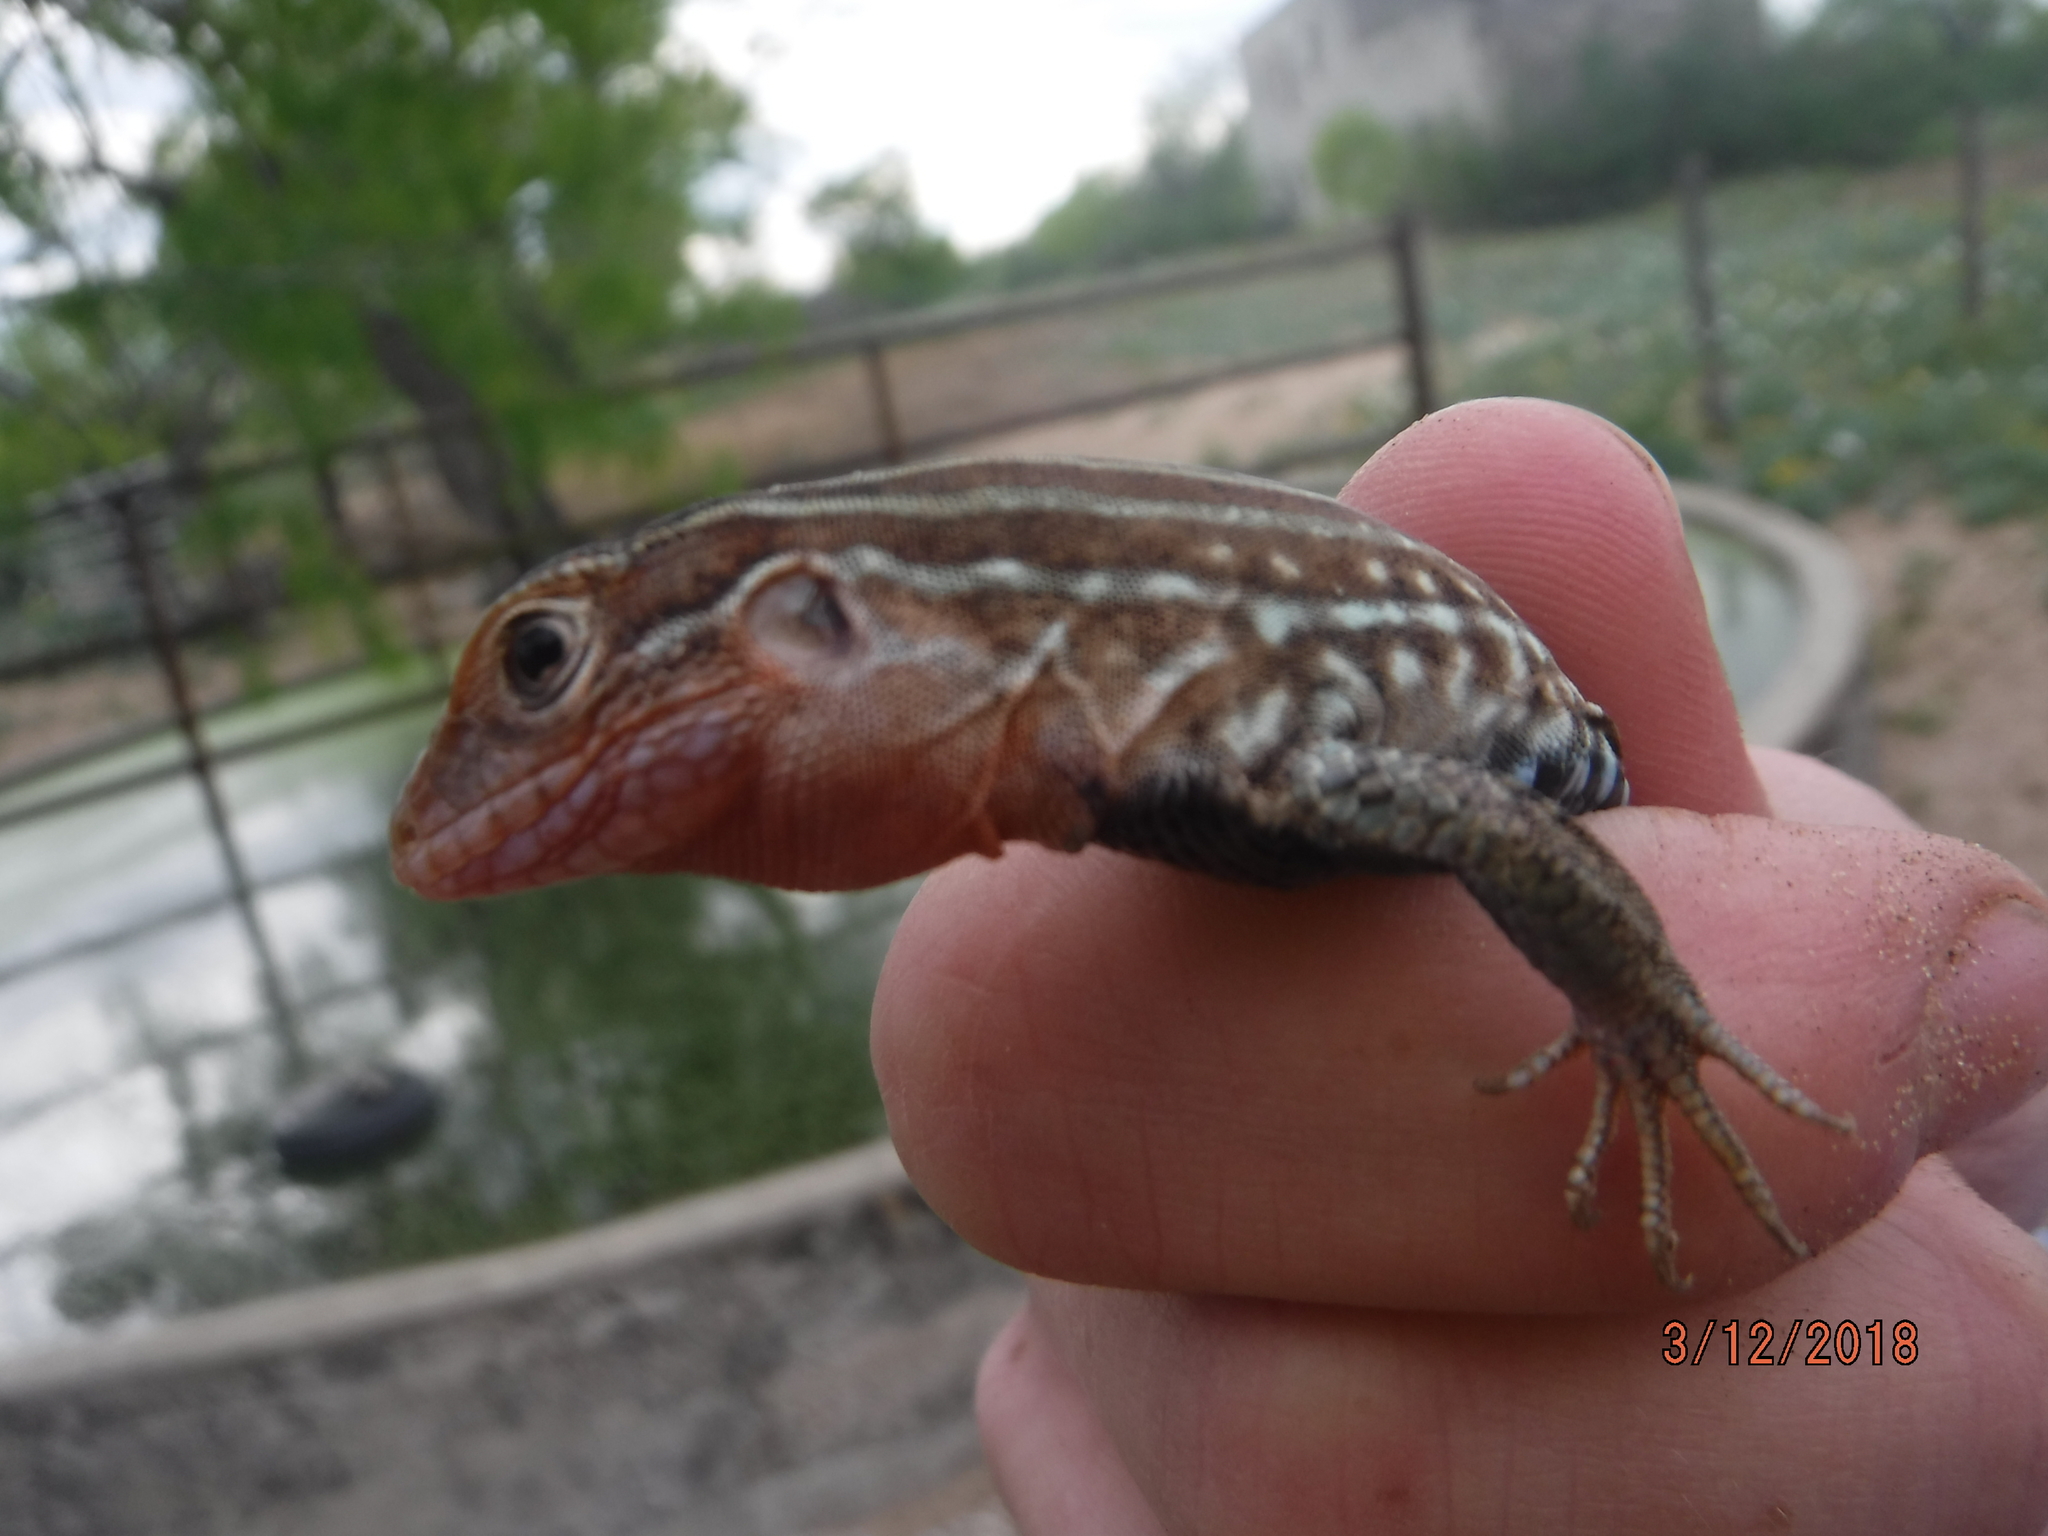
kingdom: Animalia
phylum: Chordata
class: Squamata
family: Teiidae
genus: Aspidoscelis
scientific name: Aspidoscelis gularis
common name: Eastern spotted whiptail
